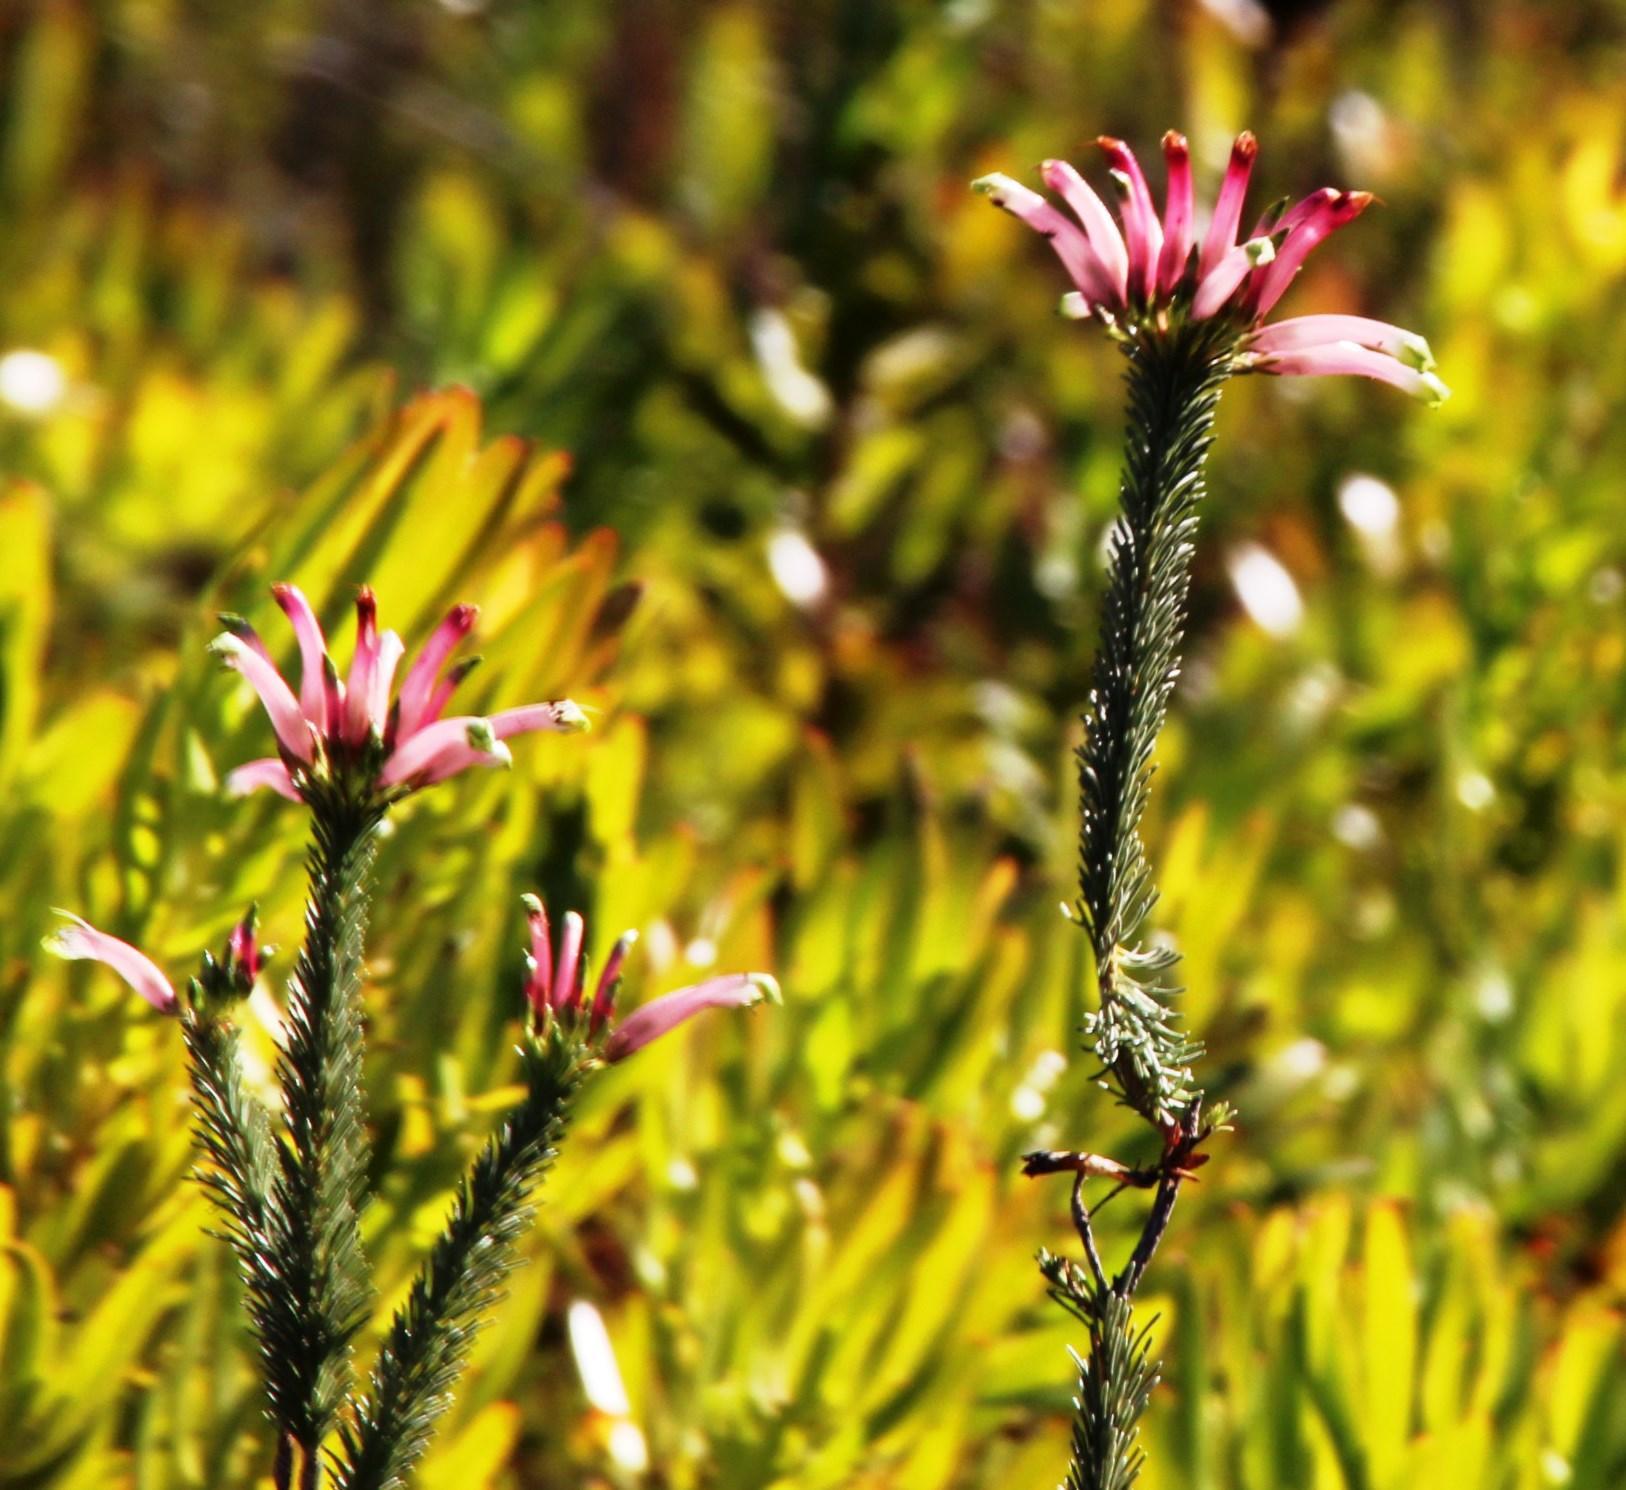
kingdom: Plantae
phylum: Tracheophyta
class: Magnoliopsida
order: Ericales
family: Ericaceae
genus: Erica
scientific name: Erica fascicularis
